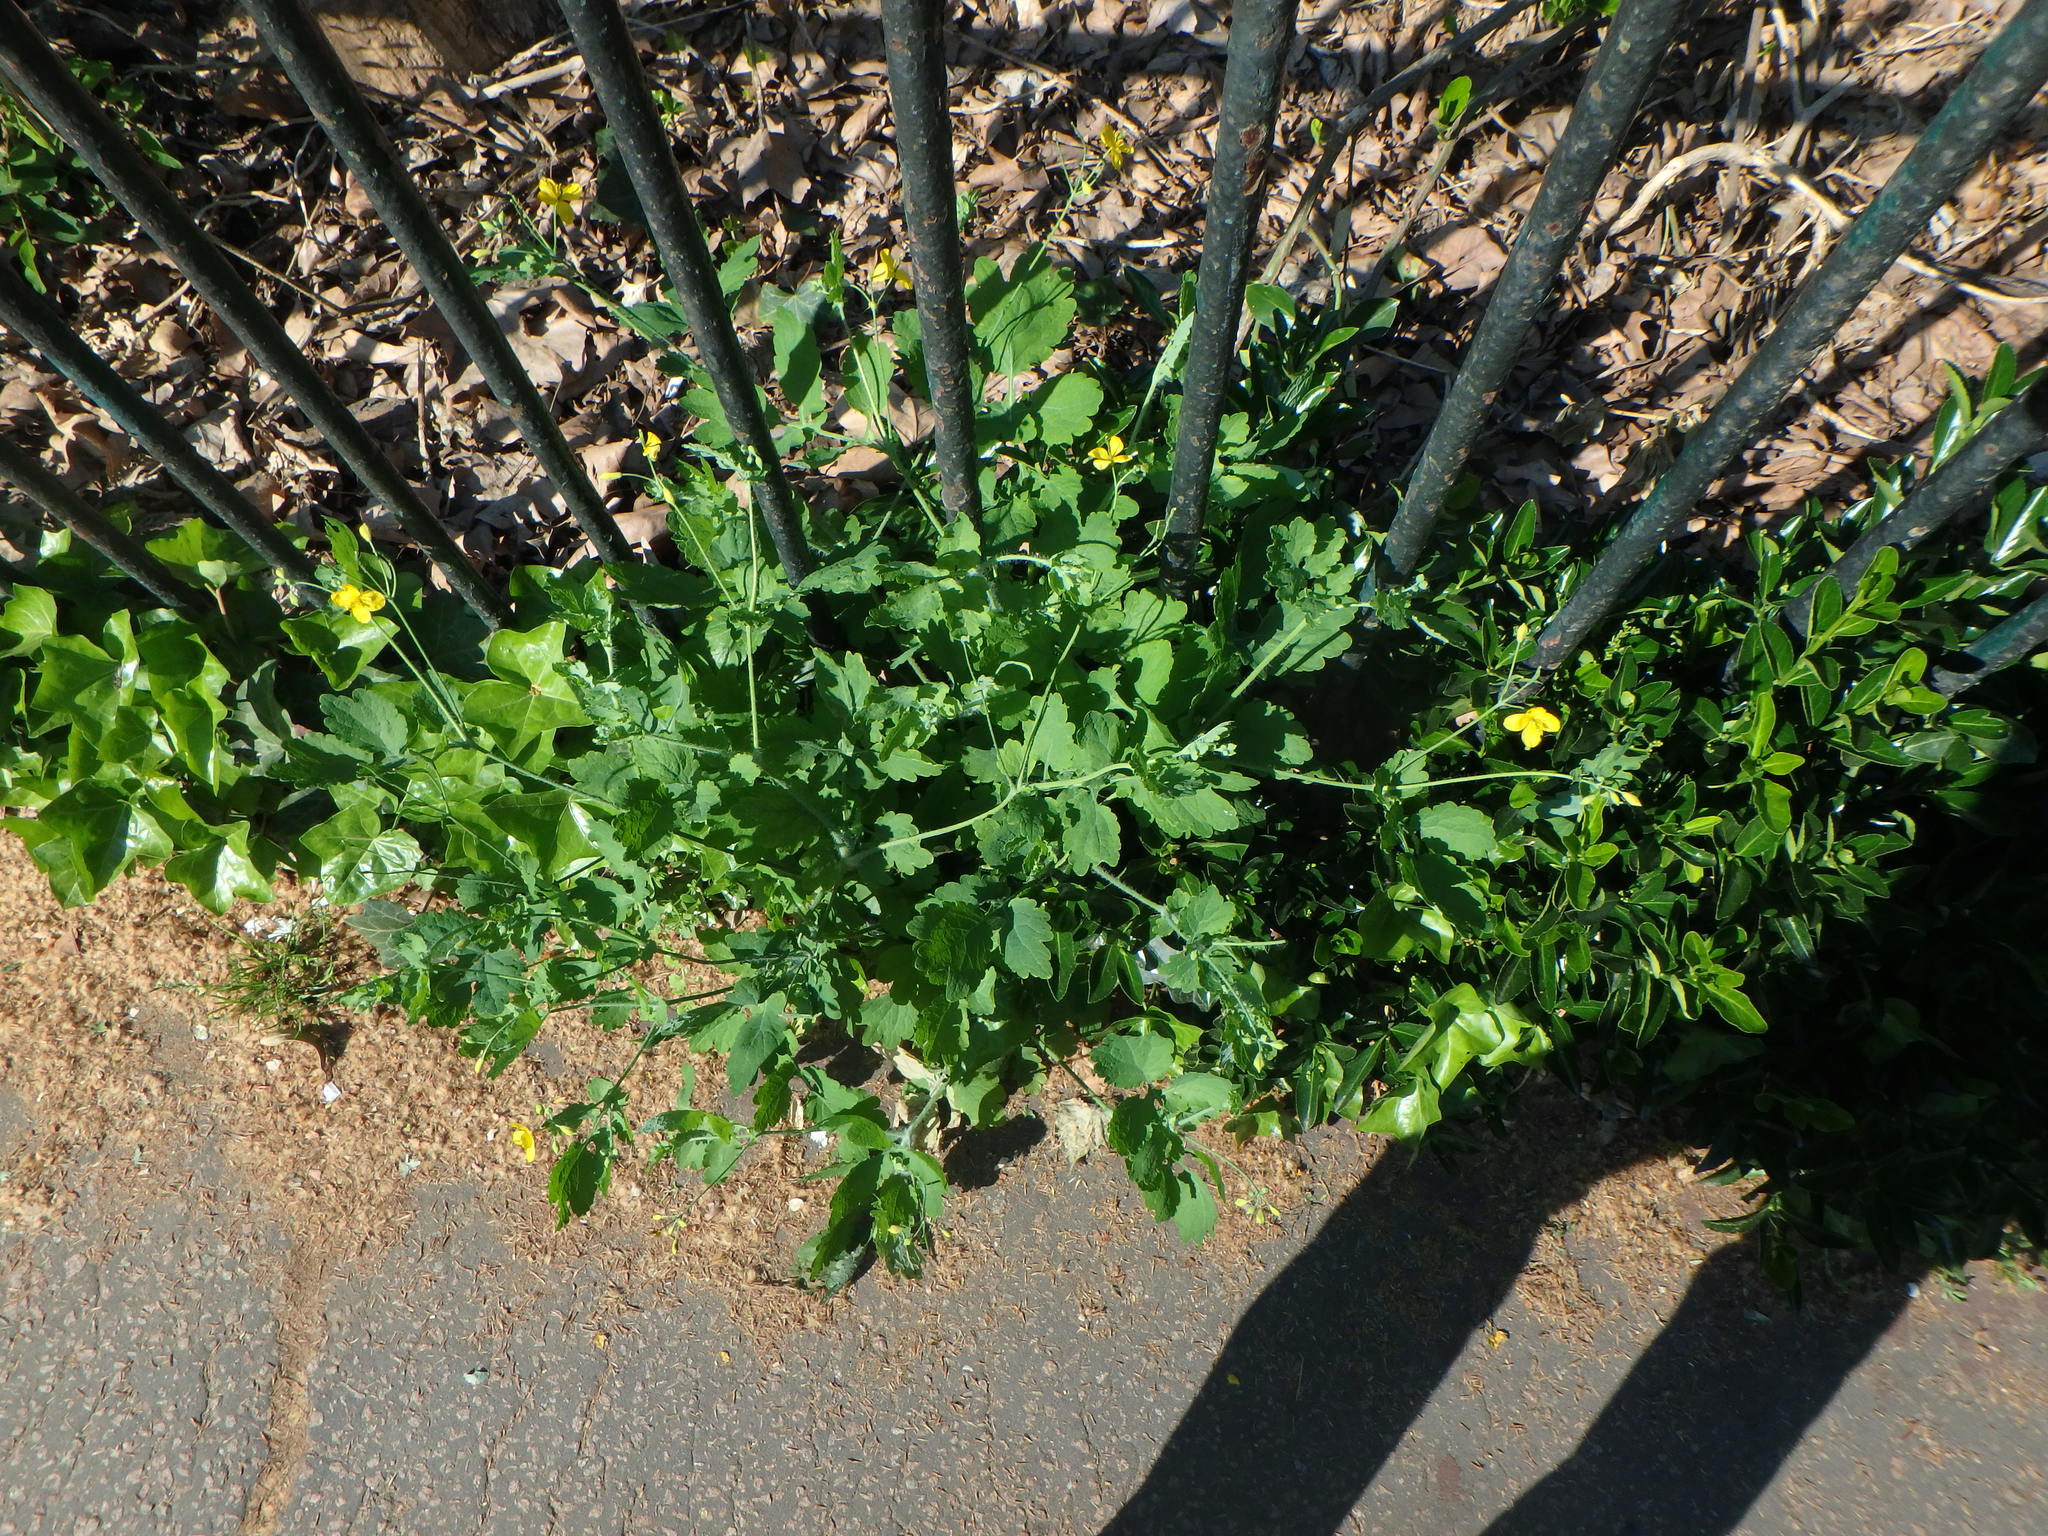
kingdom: Plantae
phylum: Tracheophyta
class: Magnoliopsida
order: Ranunculales
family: Papaveraceae
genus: Chelidonium
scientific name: Chelidonium majus
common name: Greater celandine
